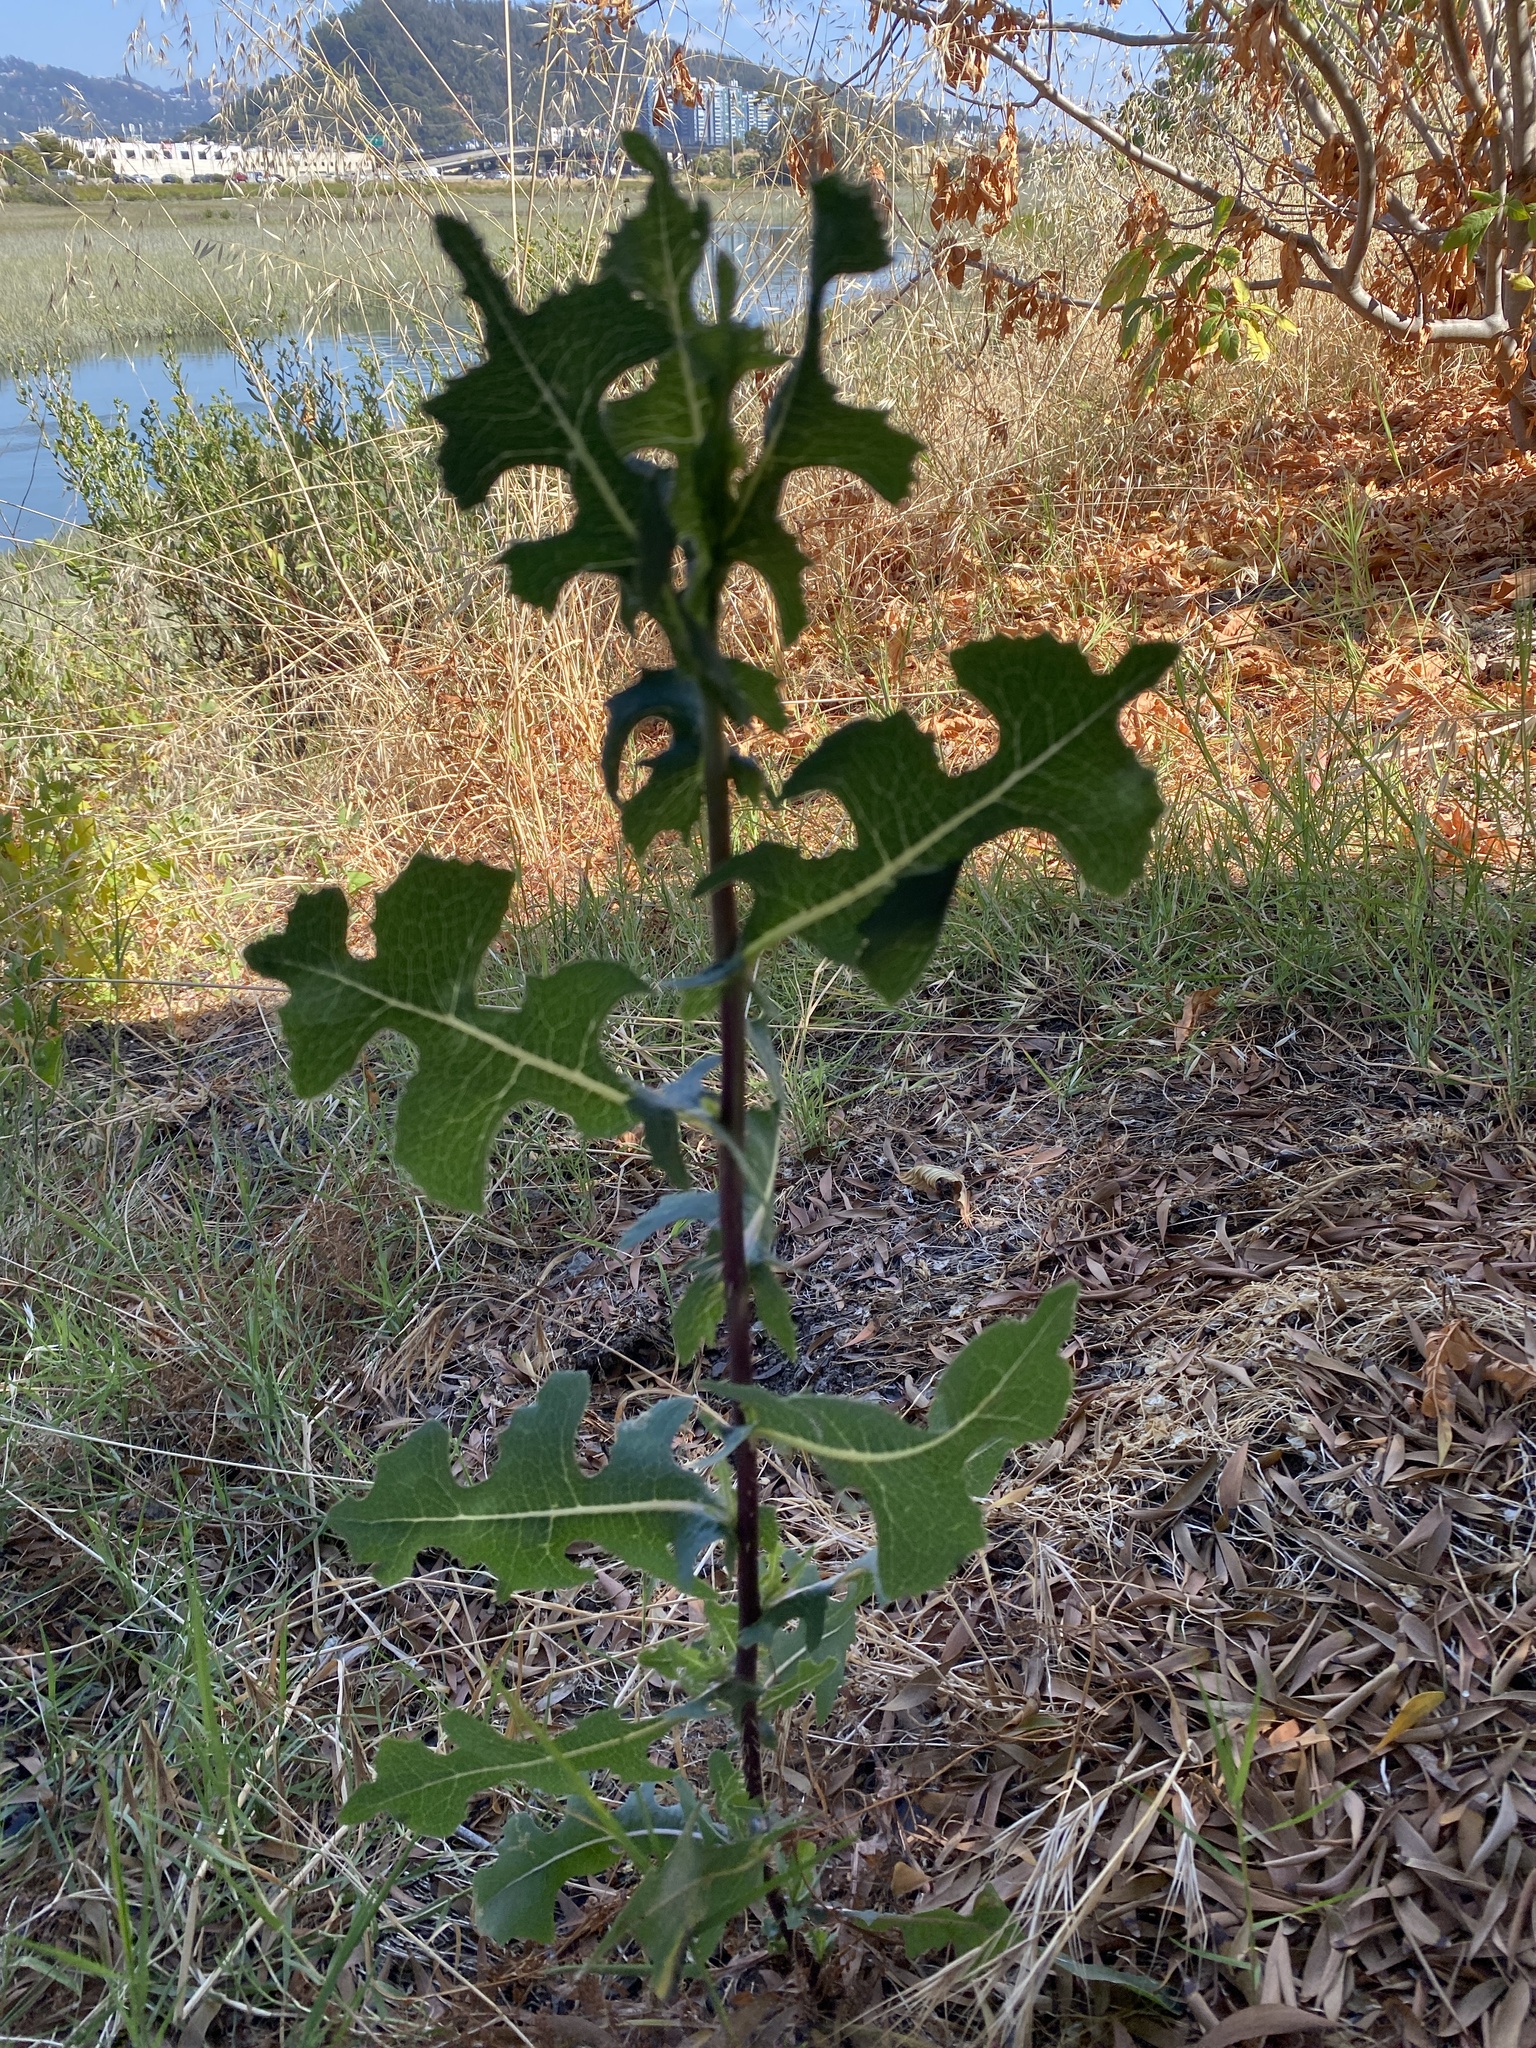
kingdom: Plantae
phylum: Tracheophyta
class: Magnoliopsida
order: Asterales
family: Asteraceae
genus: Lactuca
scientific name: Lactuca serriola
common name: Prickly lettuce
